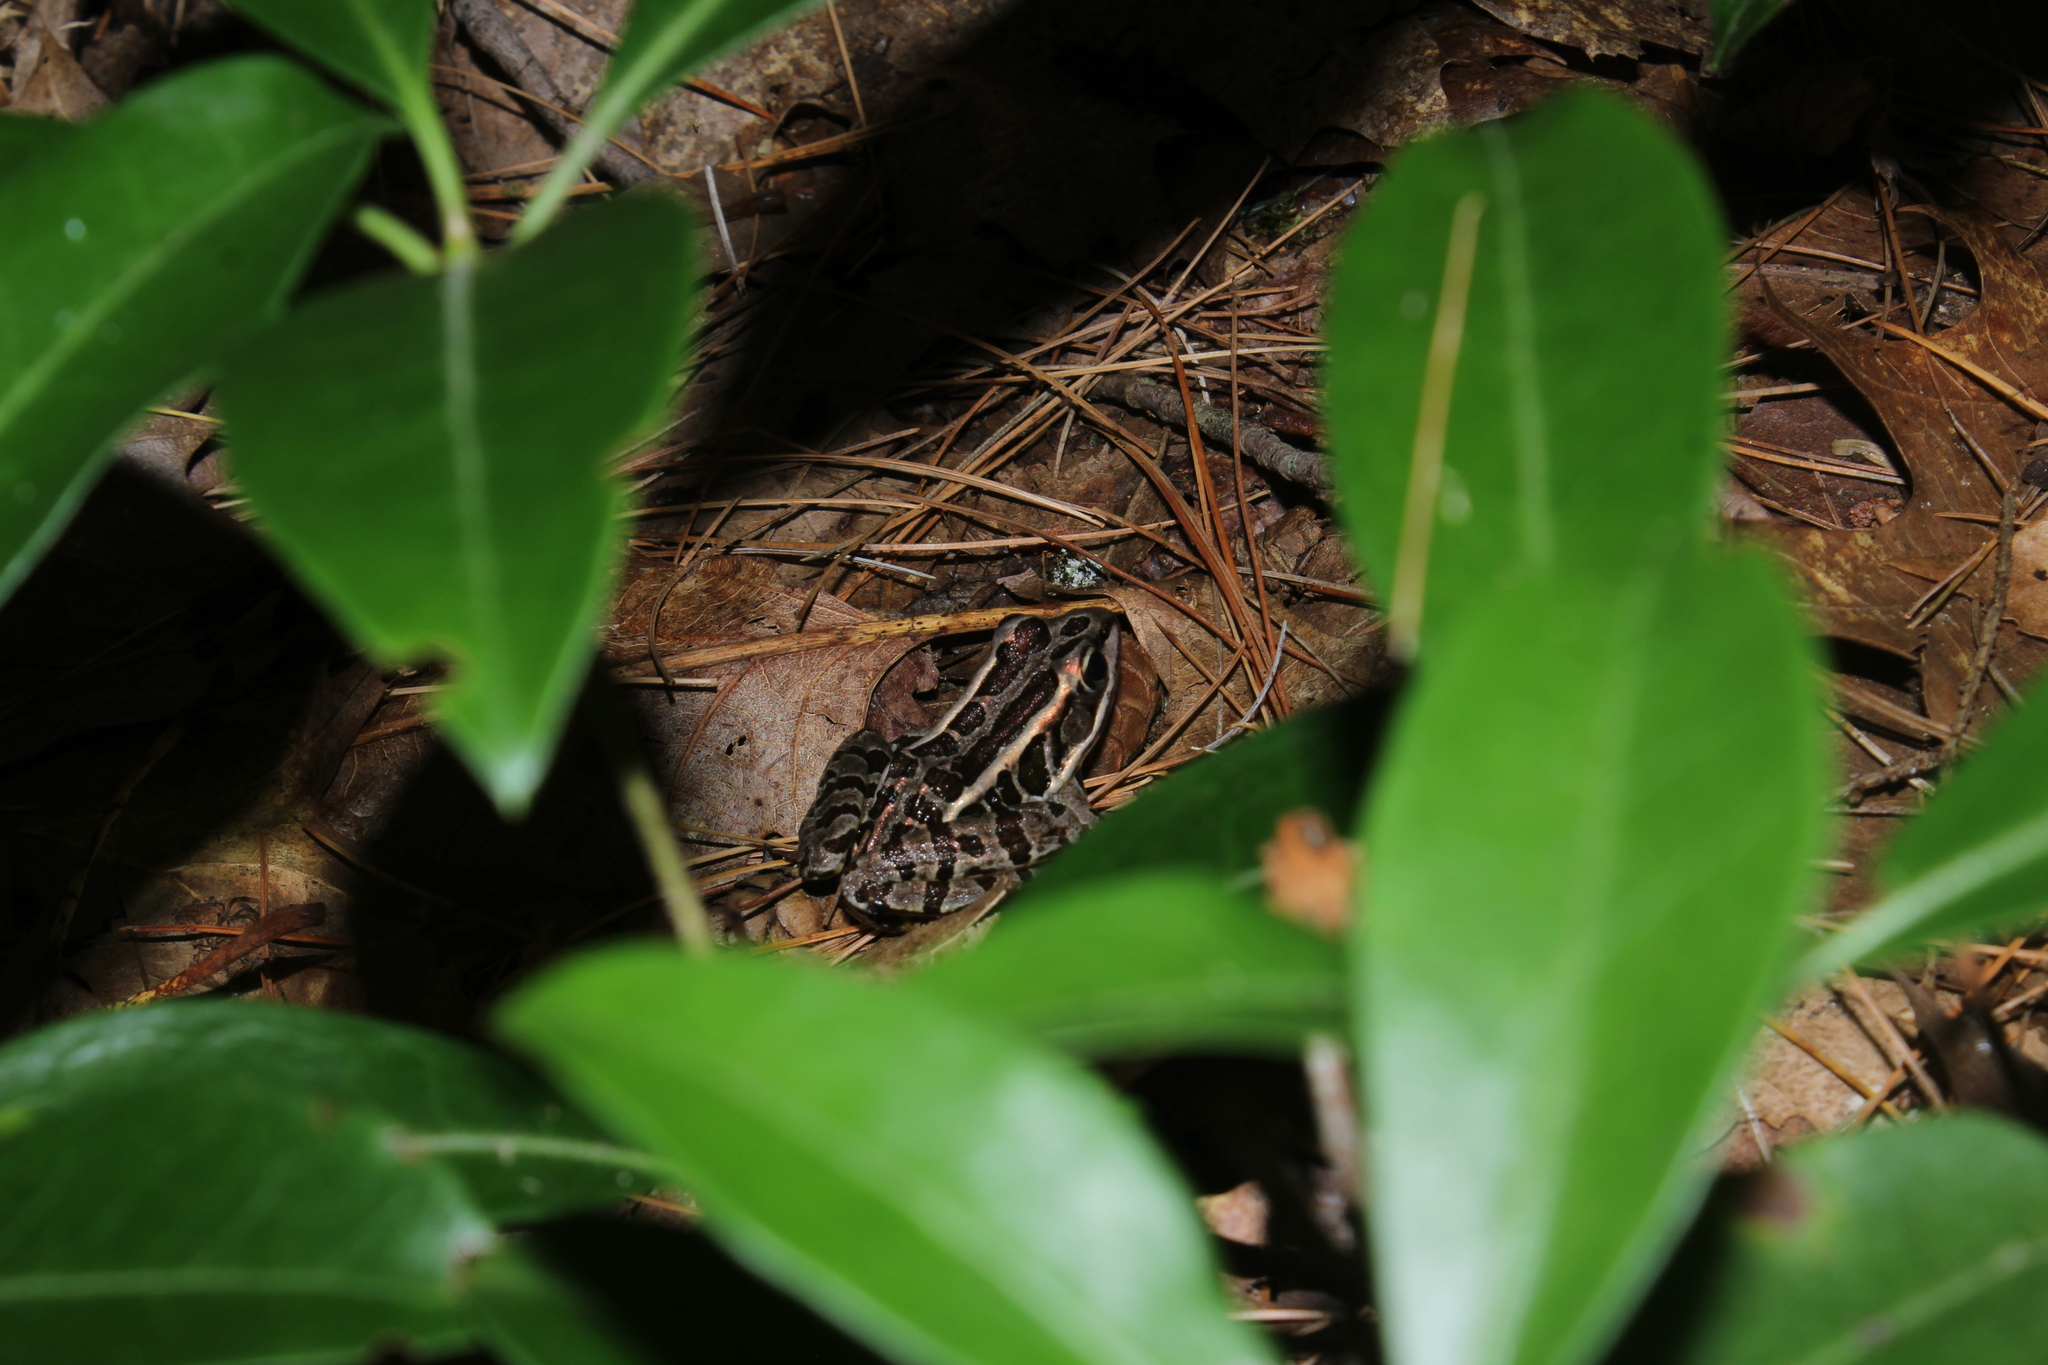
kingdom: Animalia
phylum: Chordata
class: Amphibia
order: Anura
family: Ranidae
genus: Lithobates
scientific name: Lithobates palustris
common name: Pickerel frog
